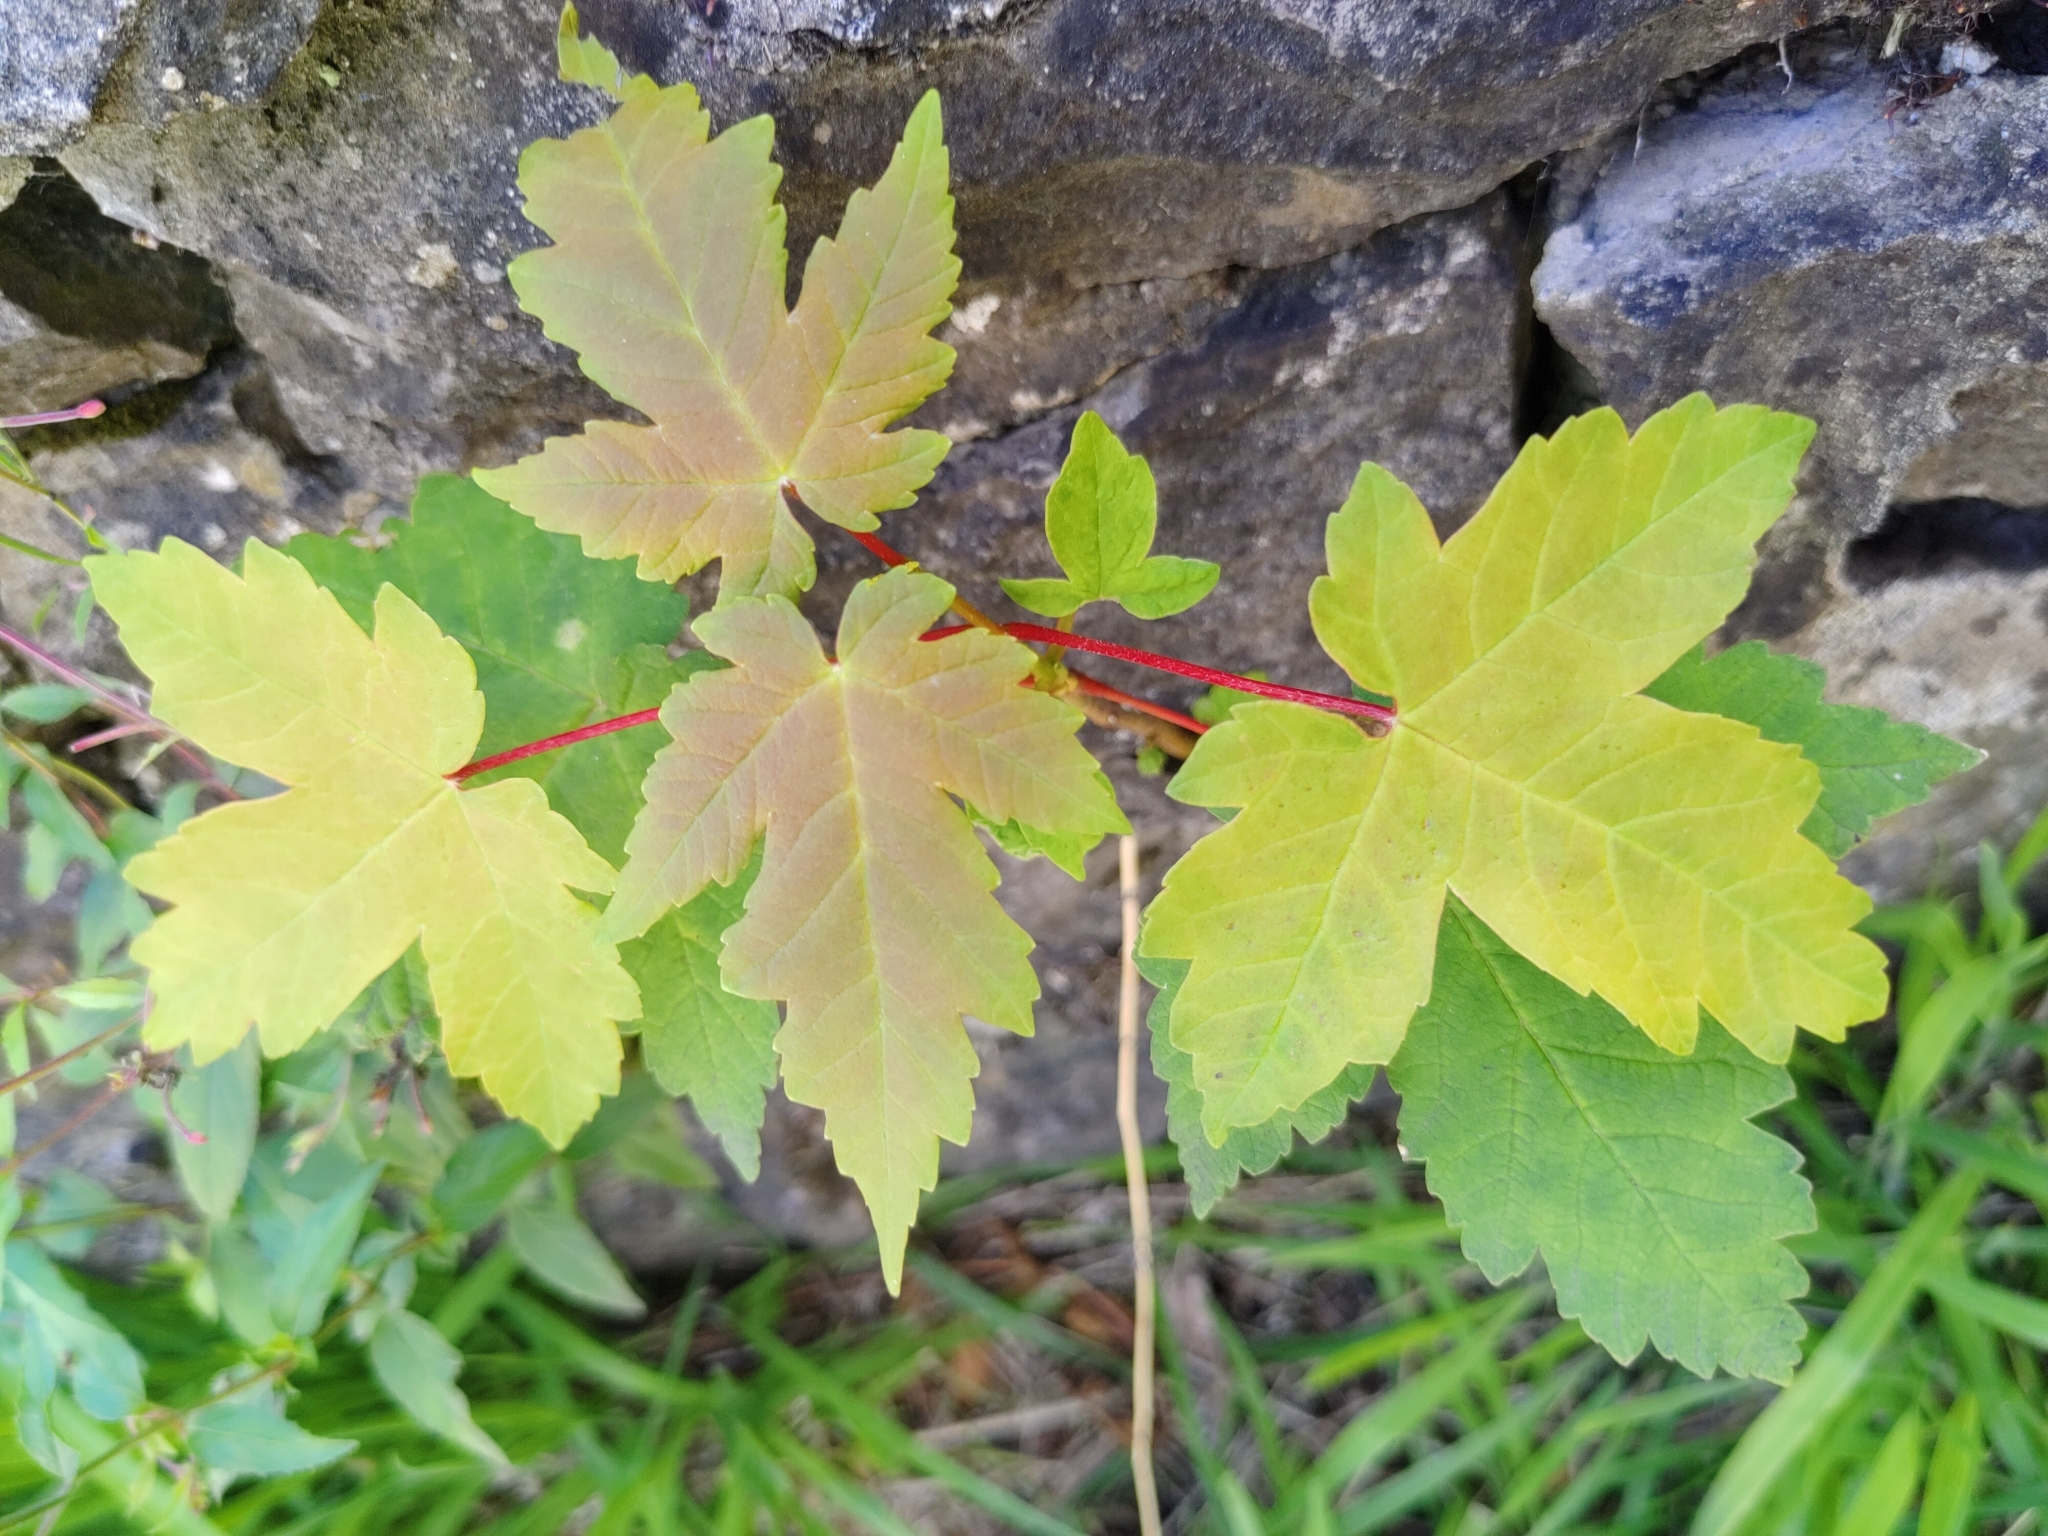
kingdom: Plantae
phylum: Tracheophyta
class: Magnoliopsida
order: Sapindales
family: Sapindaceae
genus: Acer
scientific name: Acer pseudoplatanus
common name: Sycamore
